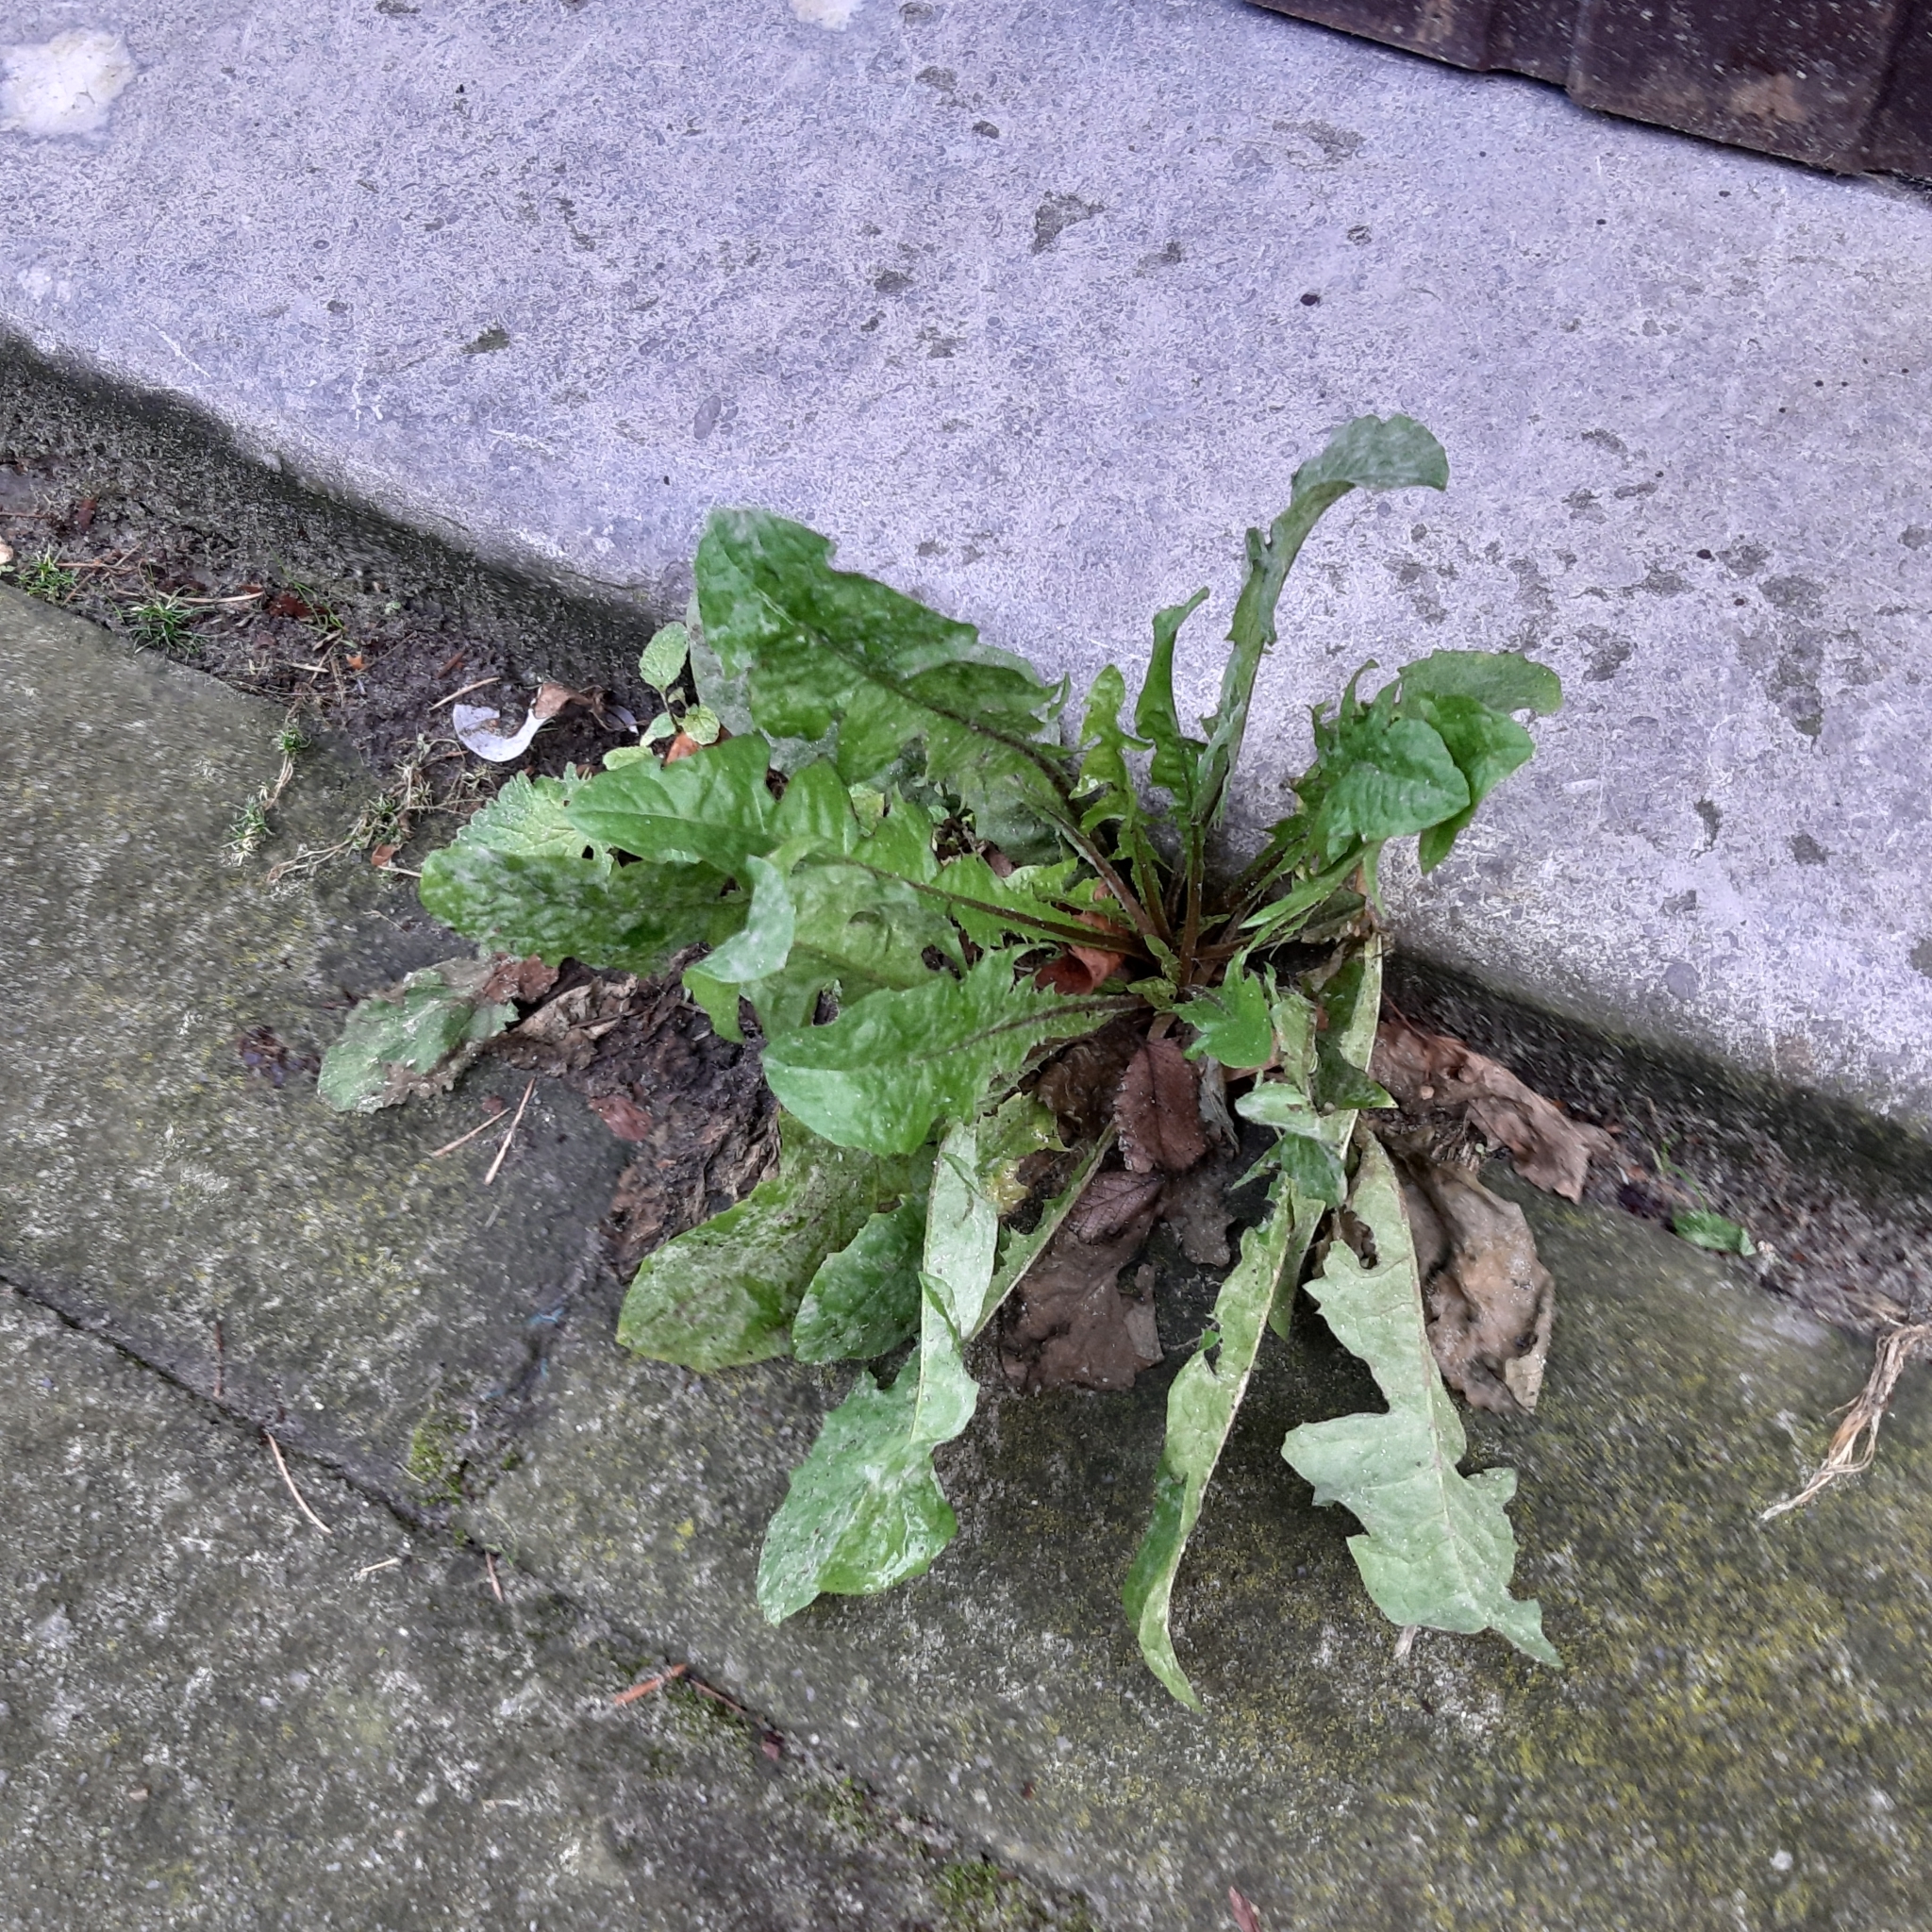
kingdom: Plantae
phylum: Tracheophyta
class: Magnoliopsida
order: Asterales
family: Asteraceae
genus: Taraxacum
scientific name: Taraxacum officinale
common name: Common dandelion
